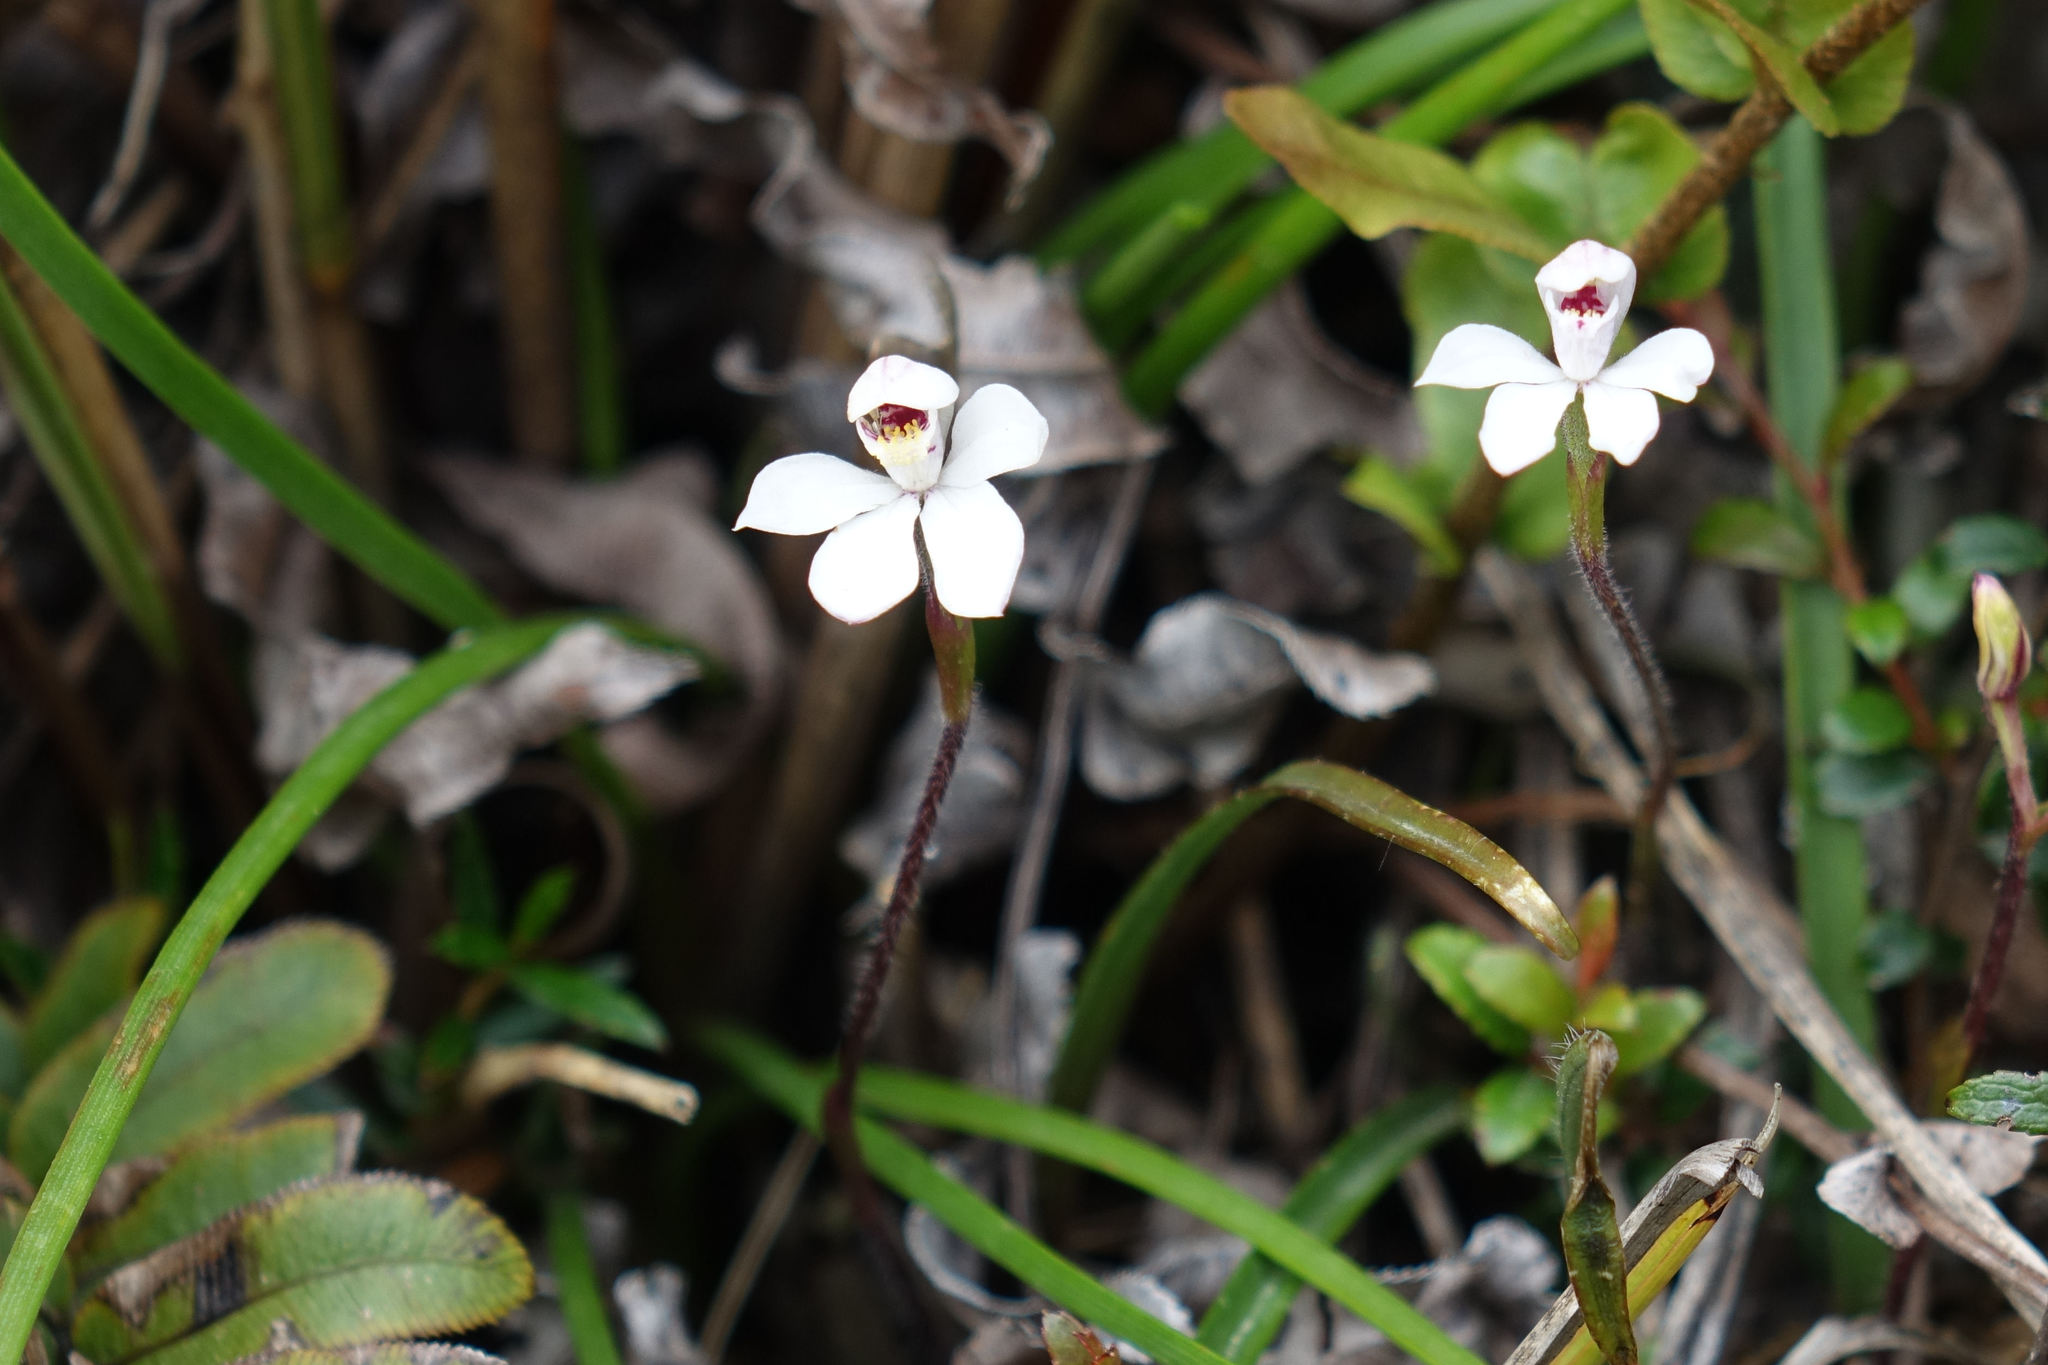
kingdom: Plantae
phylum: Tracheophyta
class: Liliopsida
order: Asparagales
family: Orchidaceae
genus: Caladenia
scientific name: Caladenia lyallii
